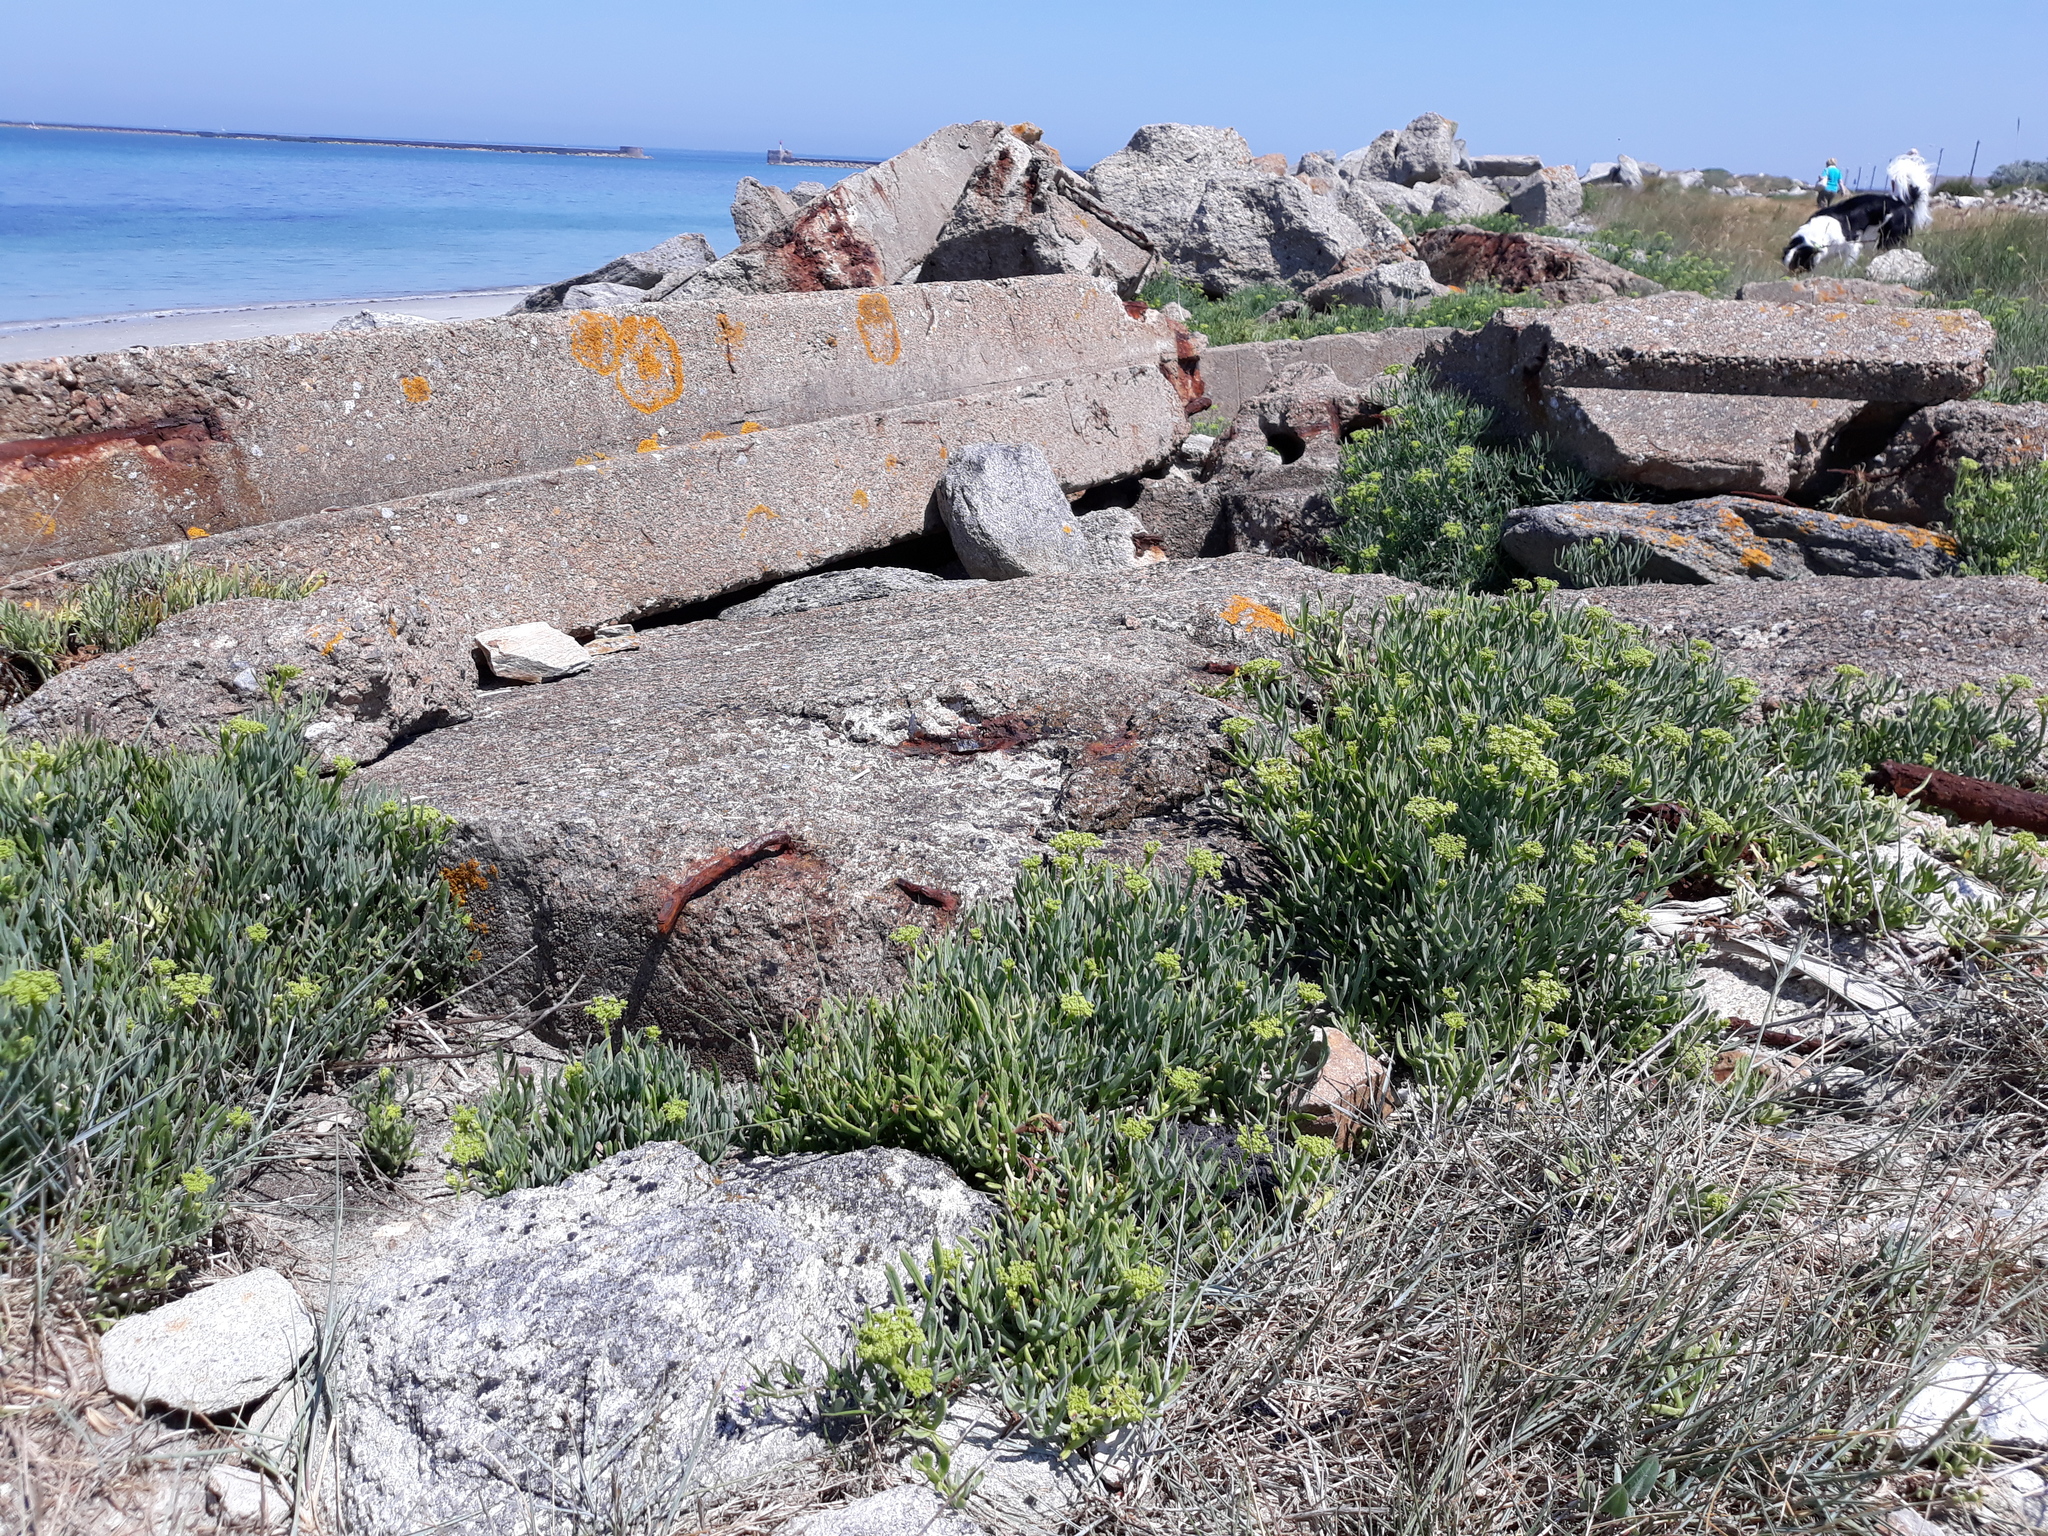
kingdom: Plantae
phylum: Tracheophyta
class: Magnoliopsida
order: Apiales
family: Apiaceae
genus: Crithmum
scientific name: Crithmum maritimum
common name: Rock samphire
